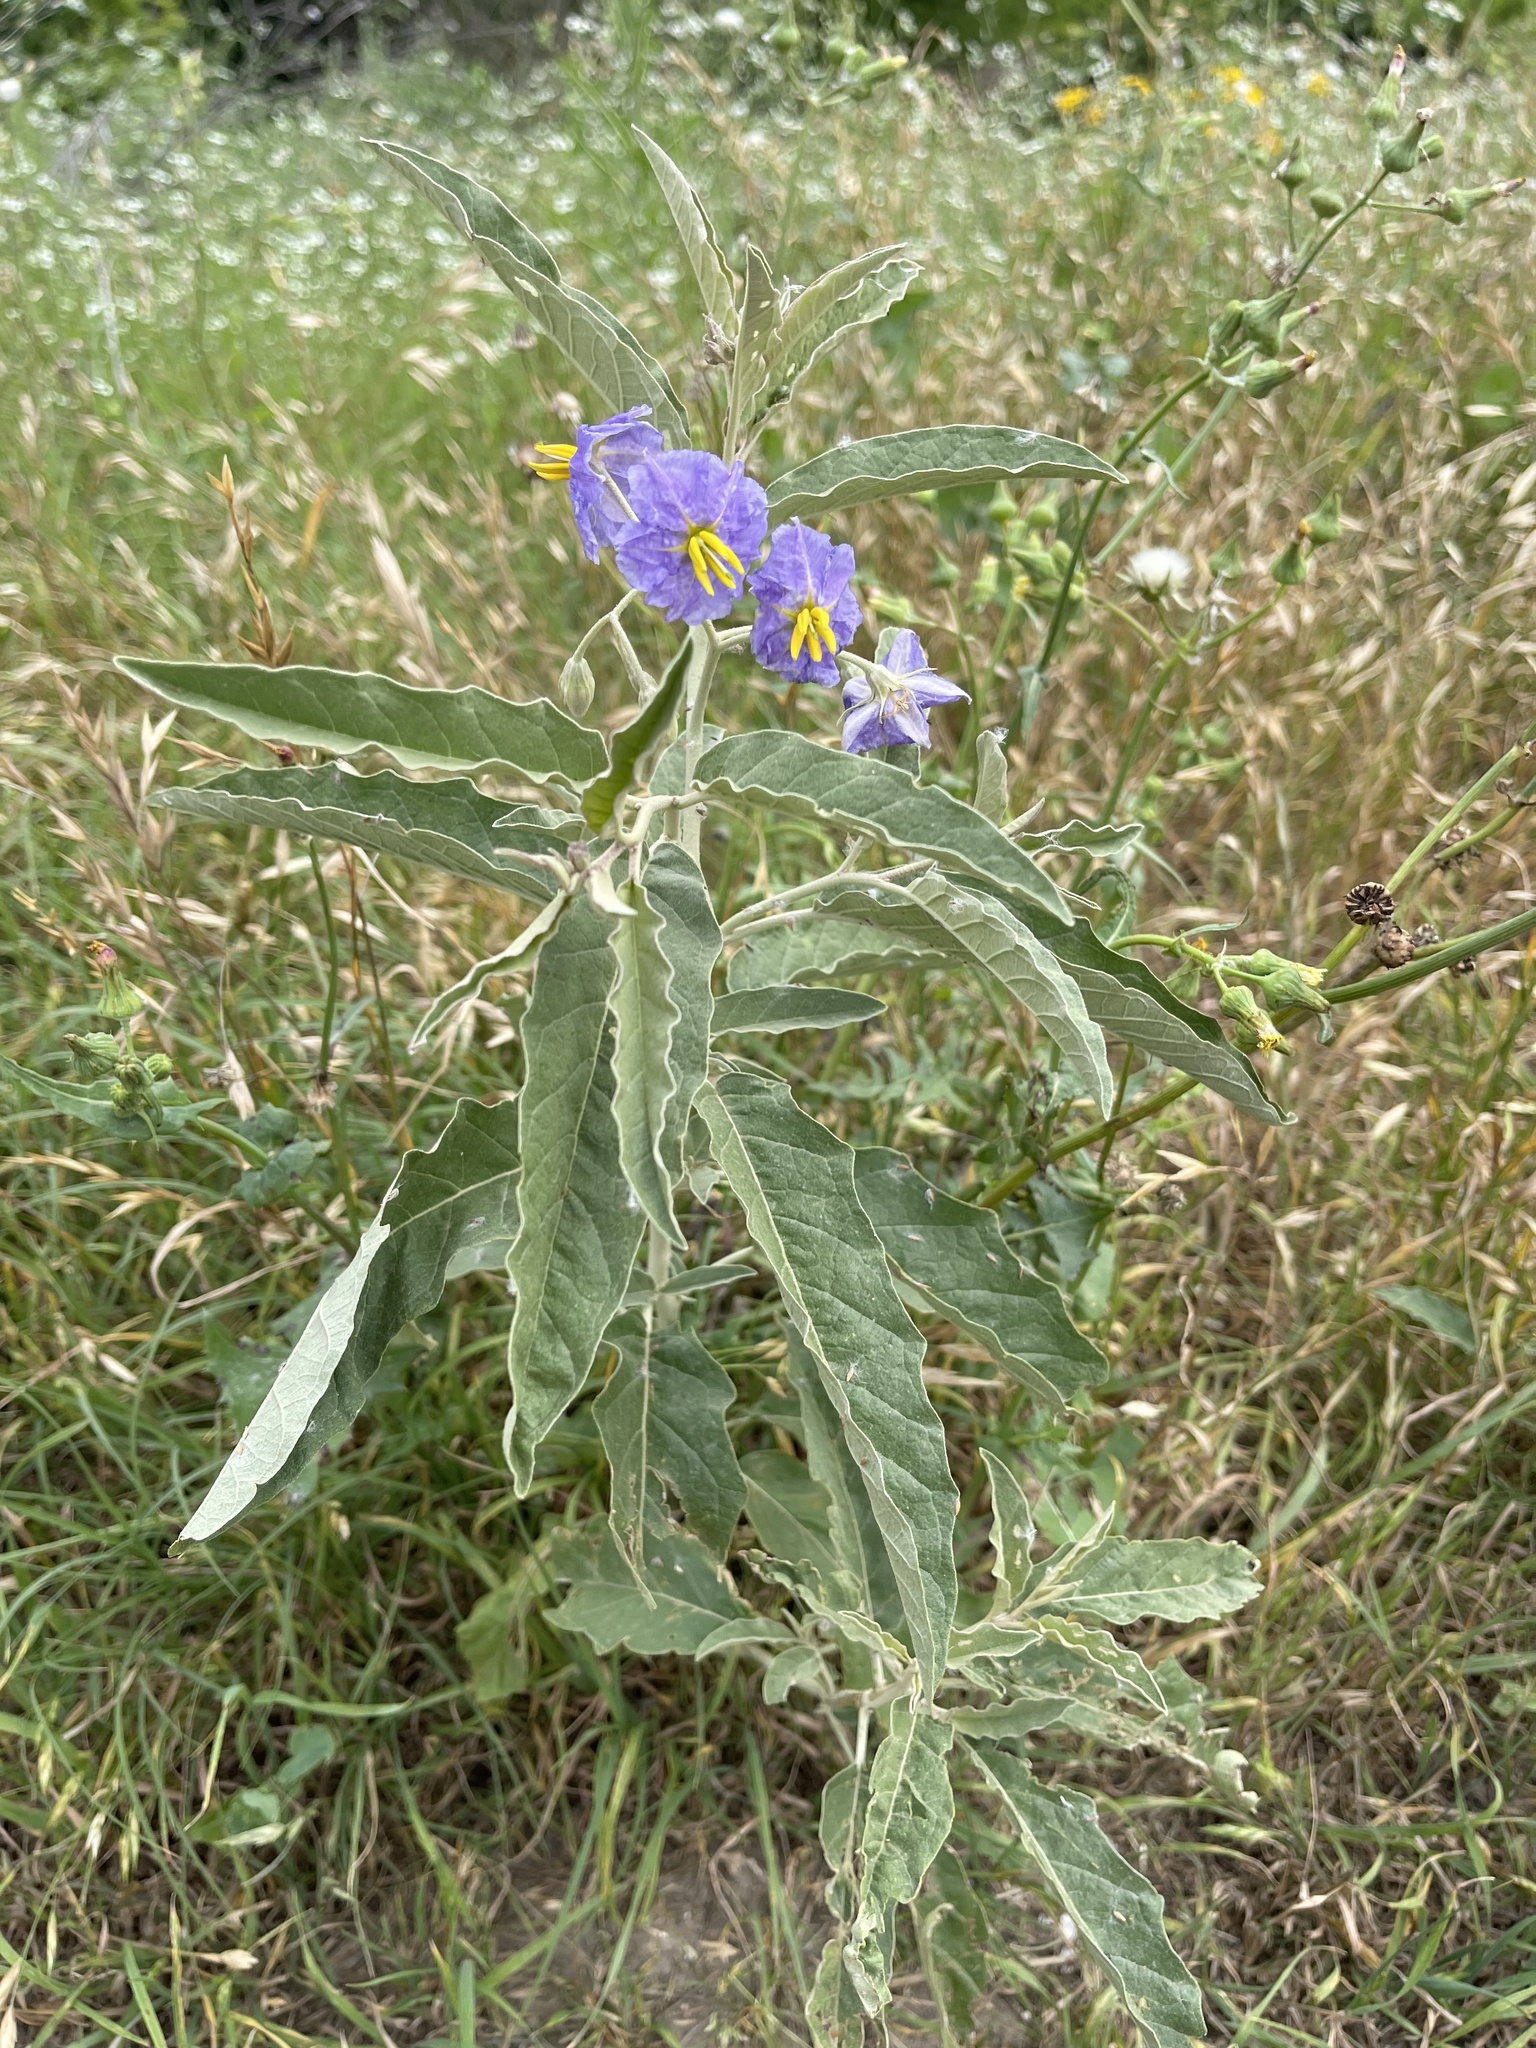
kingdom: Plantae
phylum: Tracheophyta
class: Magnoliopsida
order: Solanales
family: Solanaceae
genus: Solanum
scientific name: Solanum elaeagnifolium
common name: Silverleaf nightshade
